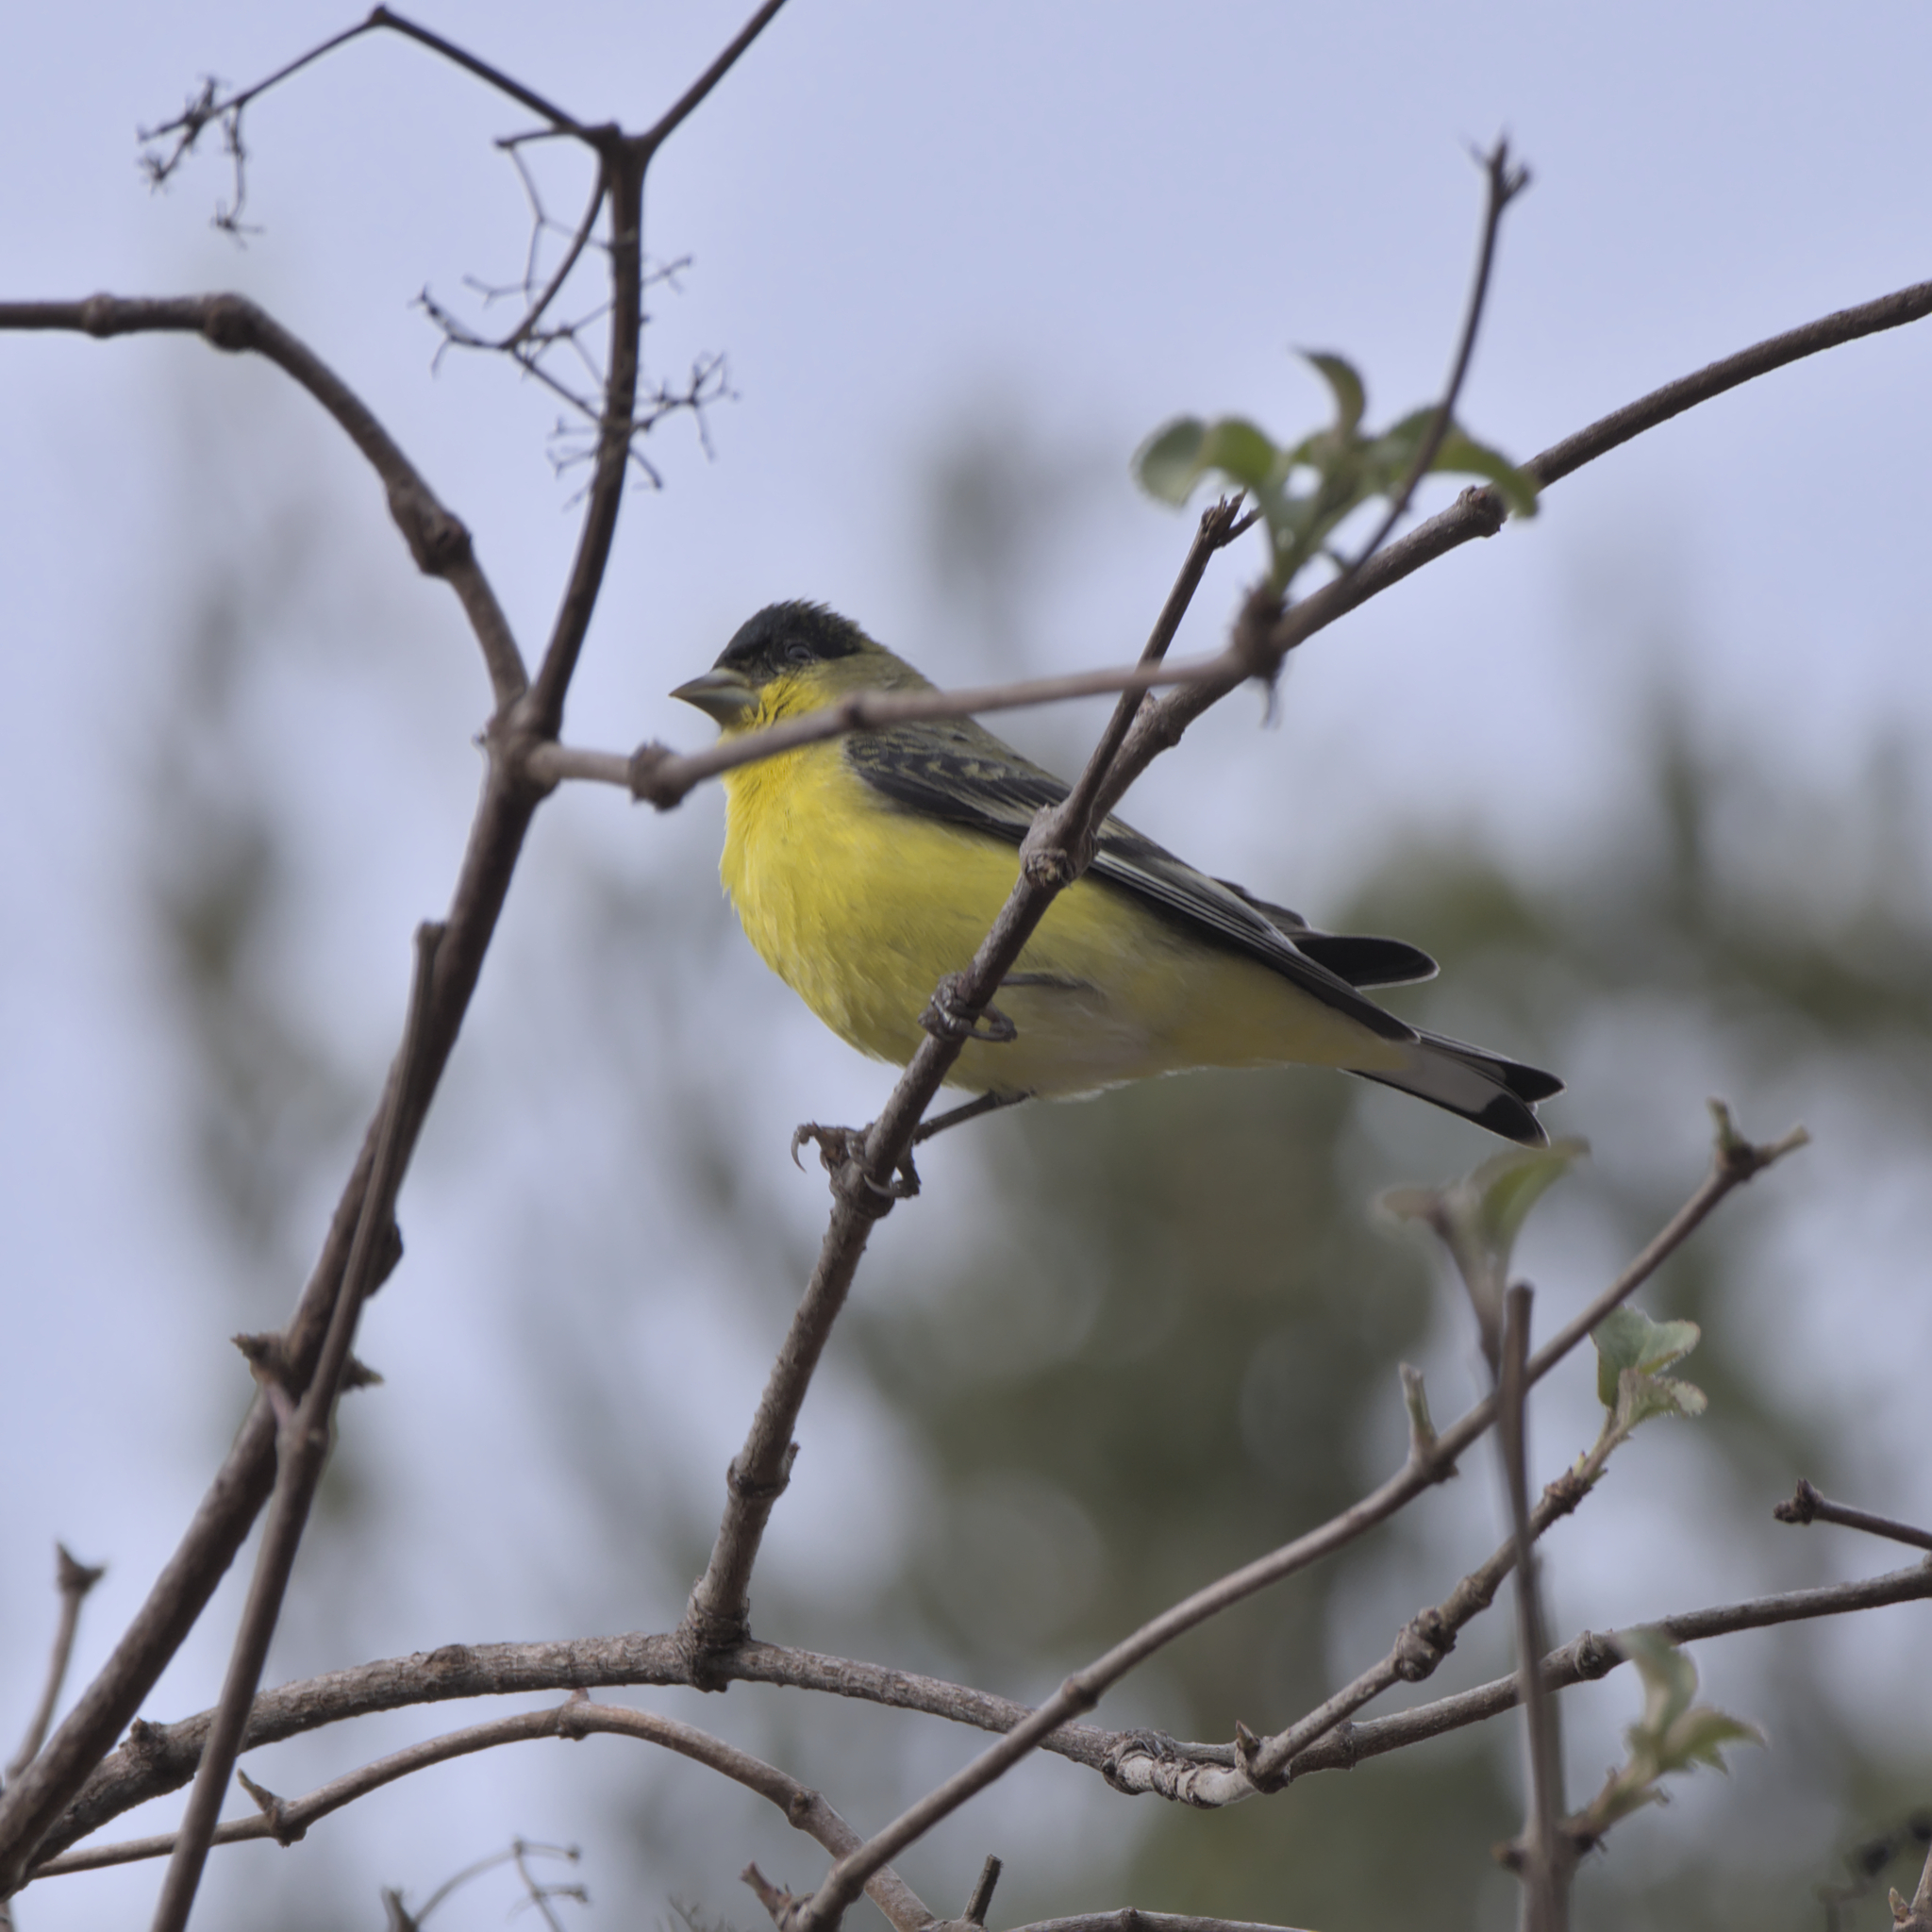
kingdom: Animalia
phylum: Chordata
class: Aves
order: Passeriformes
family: Fringillidae
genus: Spinus
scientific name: Spinus psaltria
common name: Lesser goldfinch
